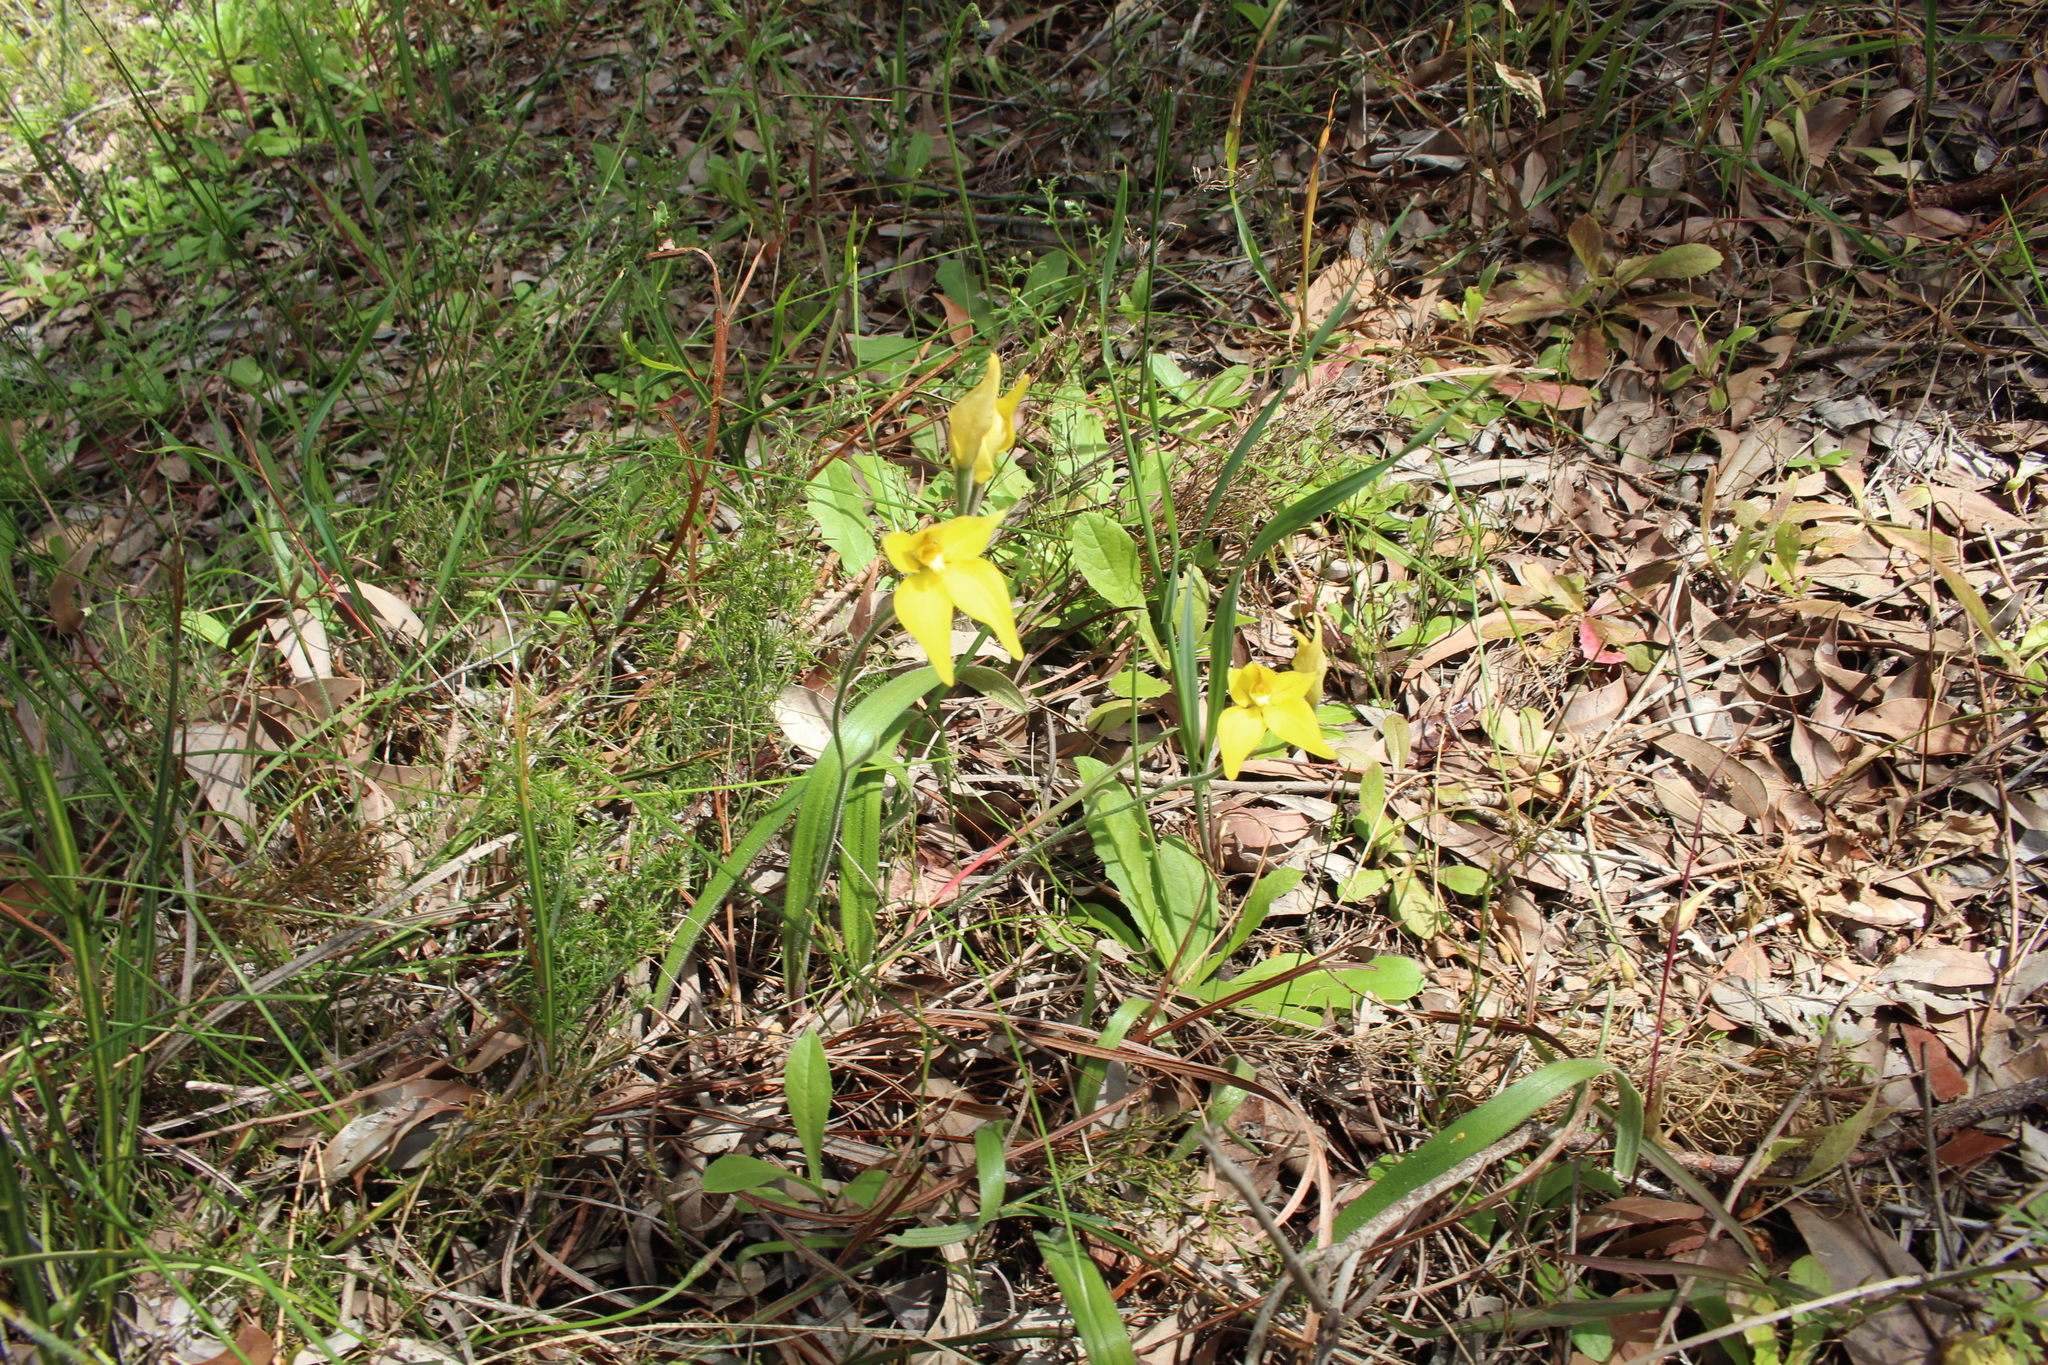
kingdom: Plantae
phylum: Tracheophyta
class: Liliopsida
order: Asparagales
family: Orchidaceae
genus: Caladenia
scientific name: Caladenia flava
